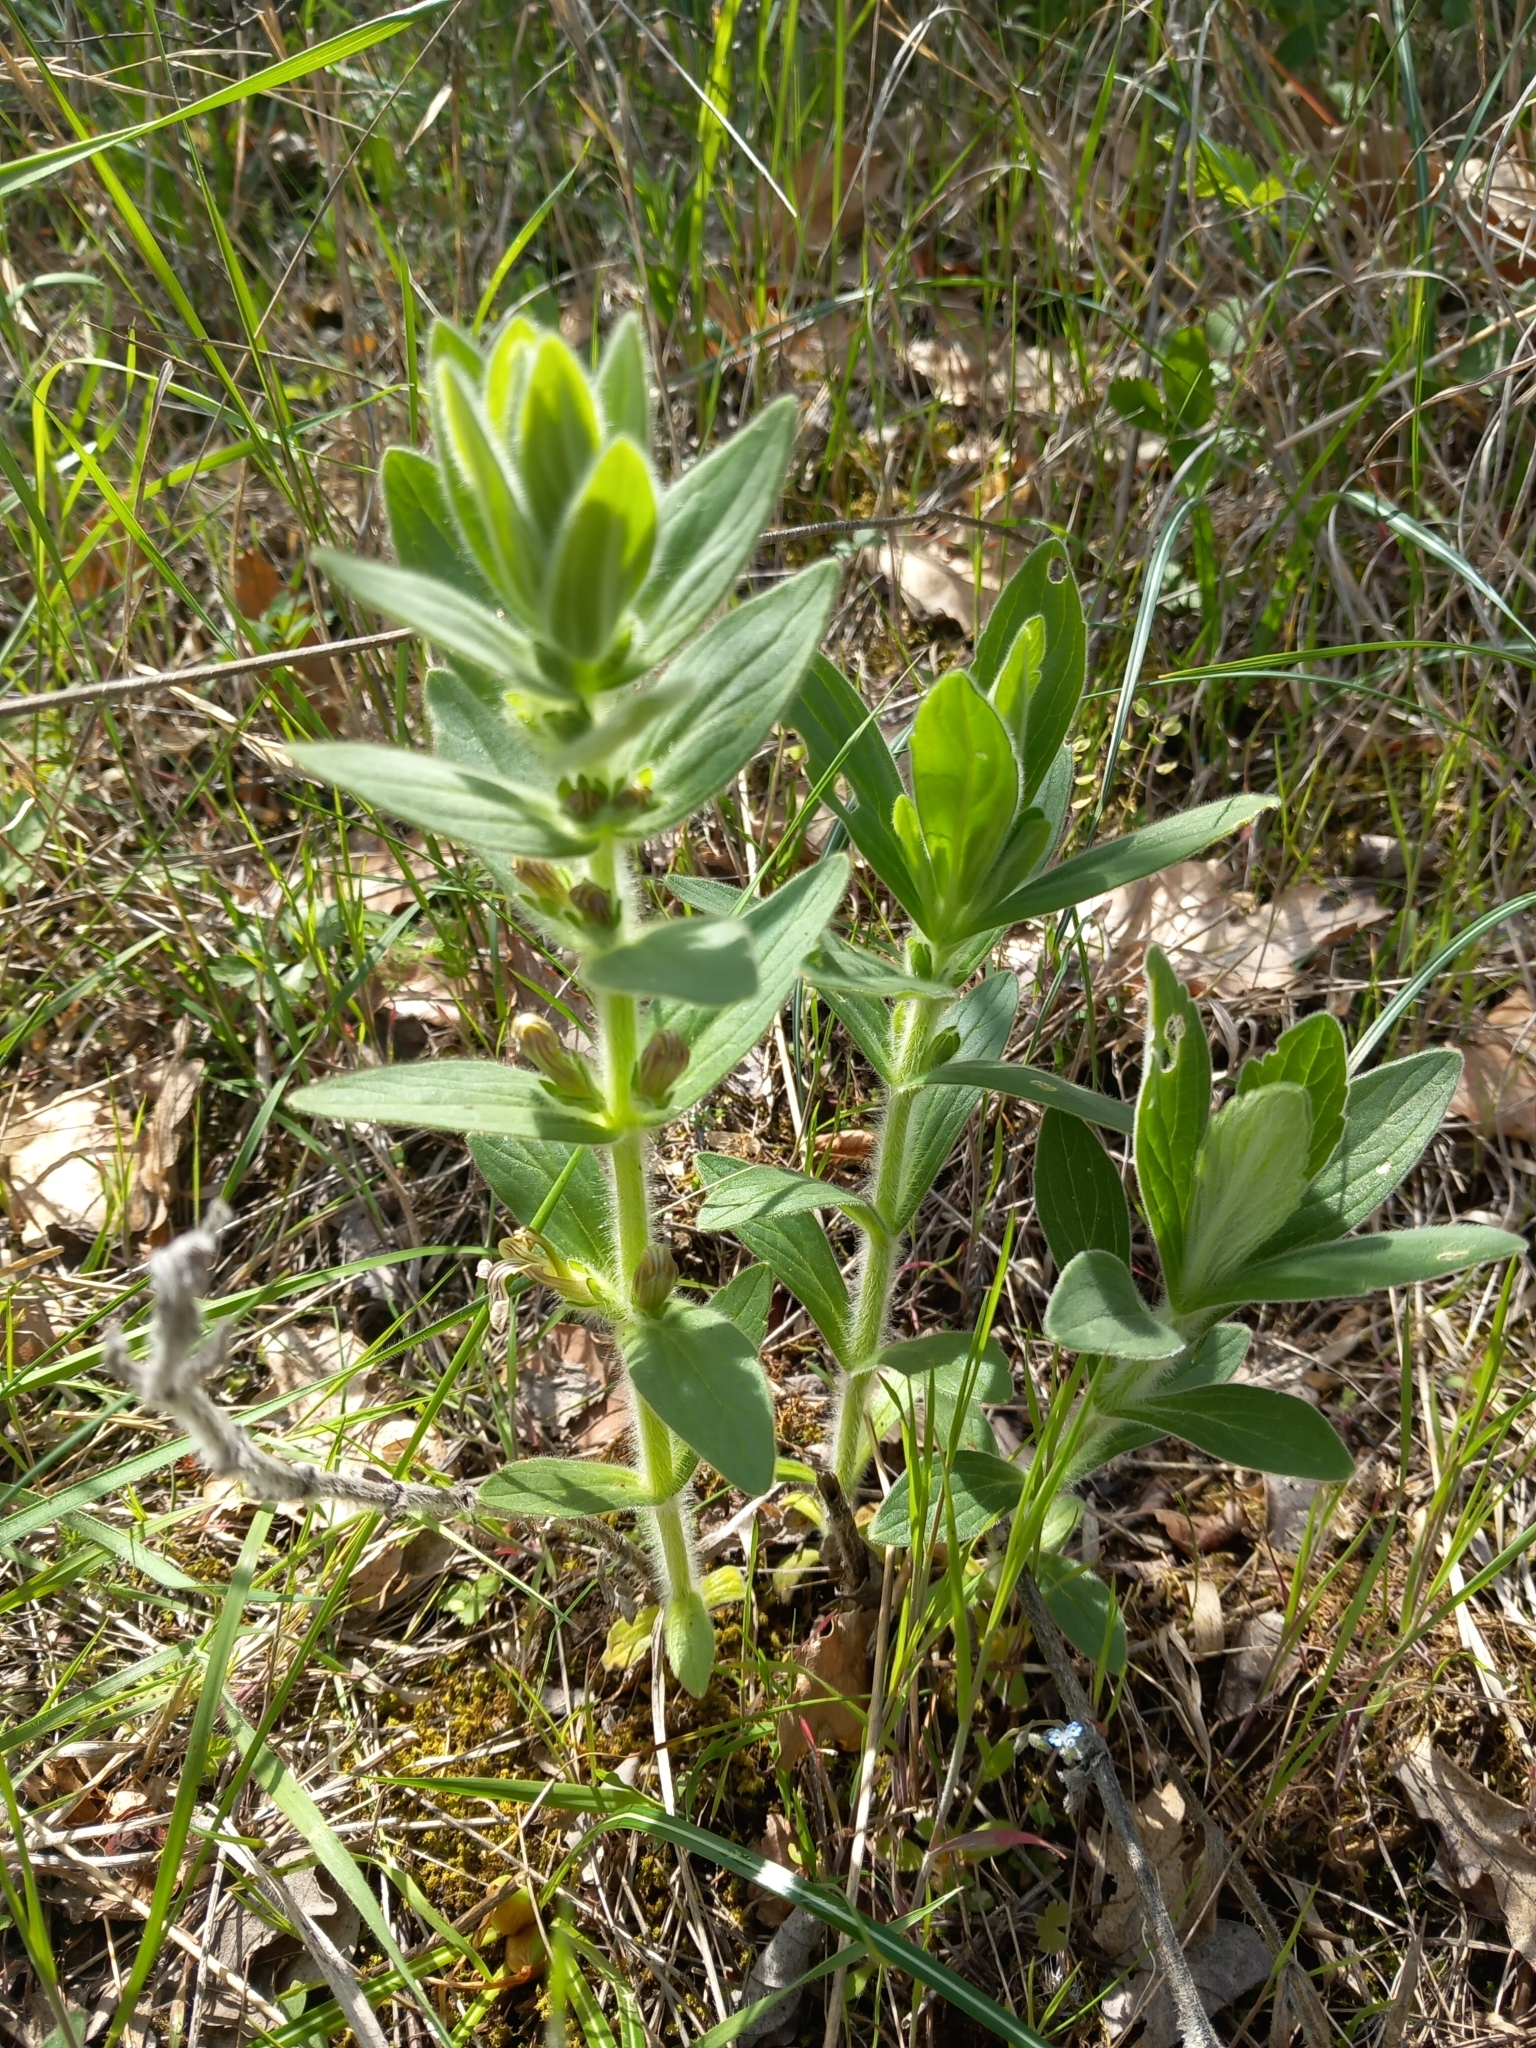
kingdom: Plantae
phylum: Tracheophyta
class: Magnoliopsida
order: Lamiales
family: Lamiaceae
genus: Ajuga
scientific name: Ajuga laxmannii
